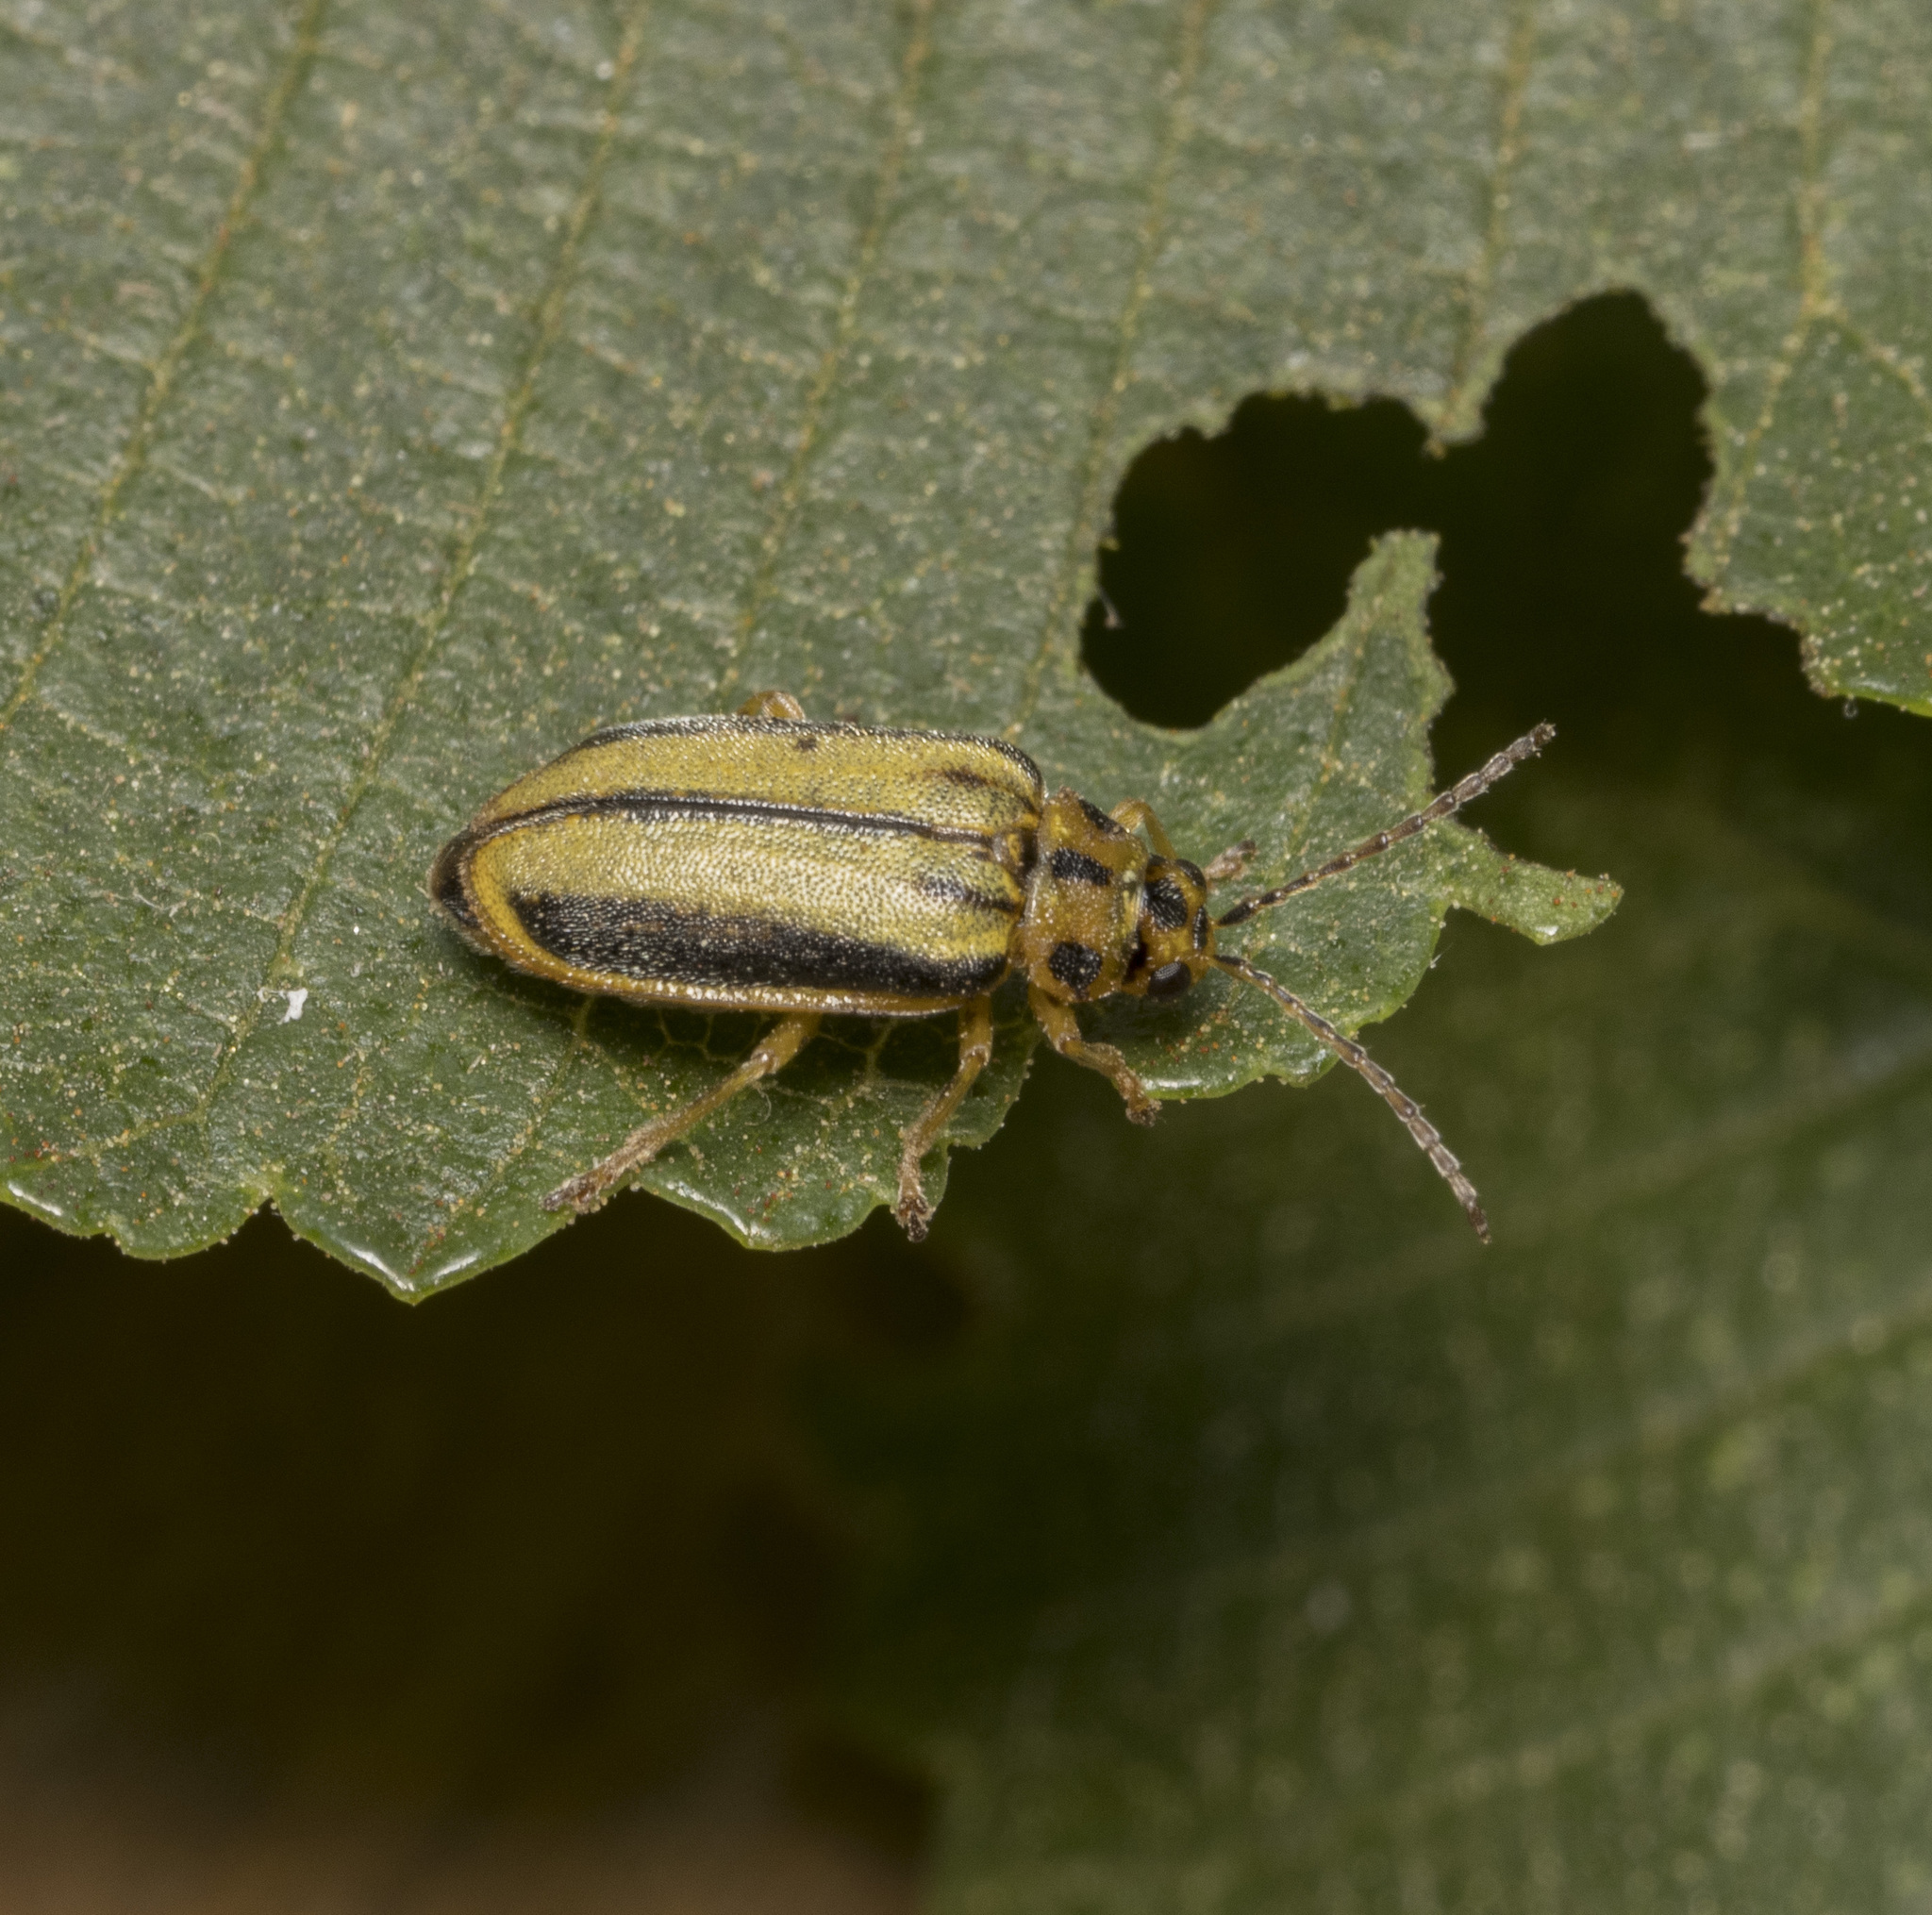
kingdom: Animalia
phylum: Arthropoda
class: Insecta
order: Coleoptera
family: Chrysomelidae
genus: Xanthogaleruca
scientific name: Xanthogaleruca luteola
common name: Elm leaf beetle
